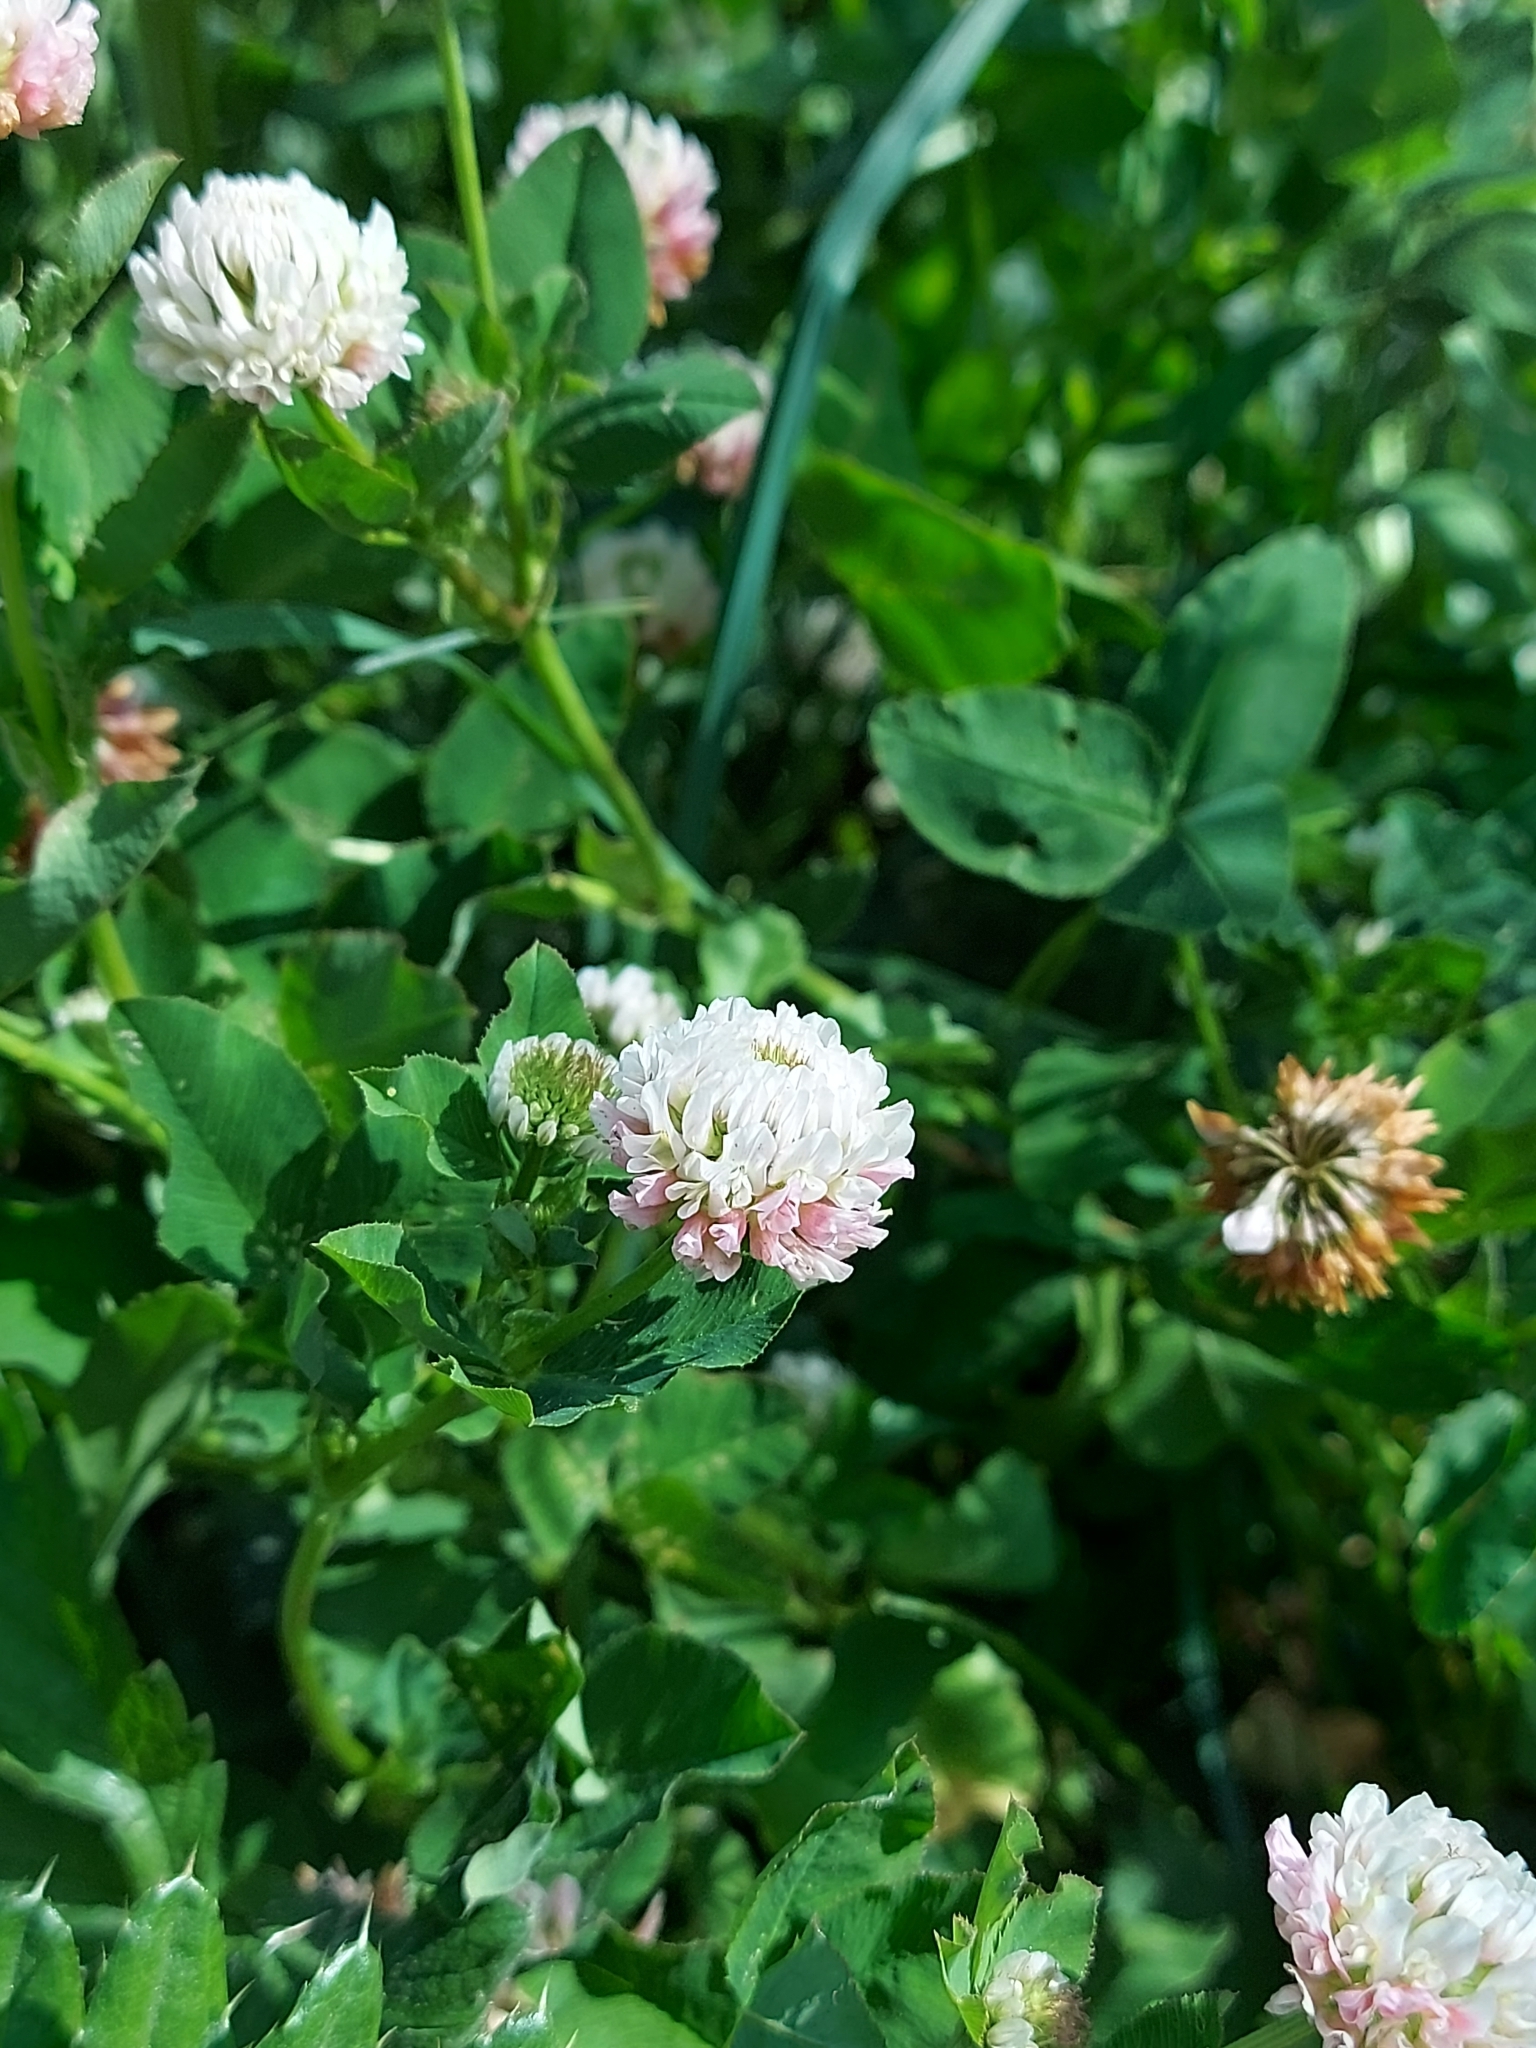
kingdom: Plantae
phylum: Tracheophyta
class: Magnoliopsida
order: Fabales
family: Fabaceae
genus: Trifolium
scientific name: Trifolium hybridum
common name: Alsike clover
